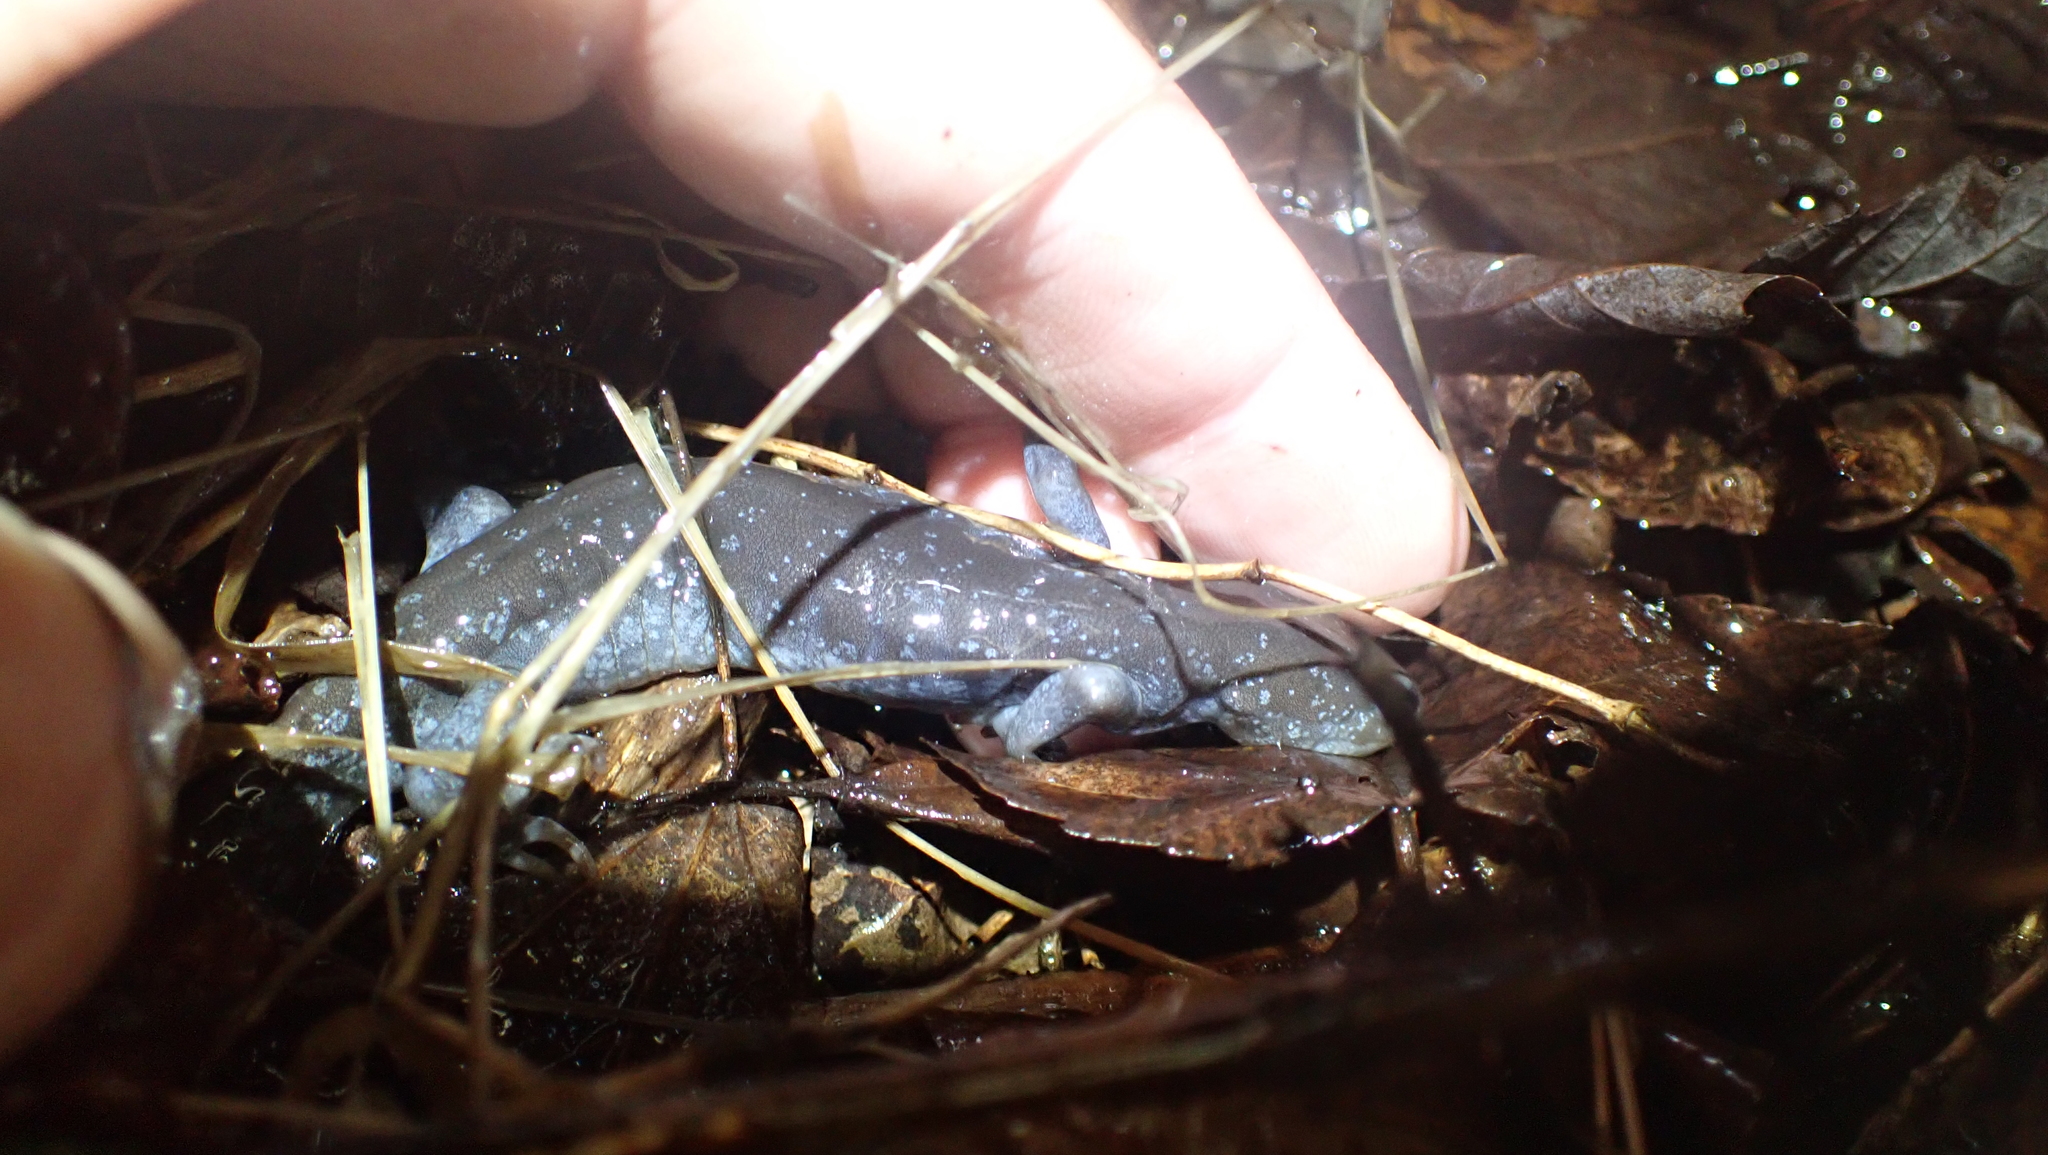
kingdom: Animalia
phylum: Chordata
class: Amphibia
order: Caudata
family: Ambystomatidae
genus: Ambystoma
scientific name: Ambystoma jeffersonianum
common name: Jefferson salamander
